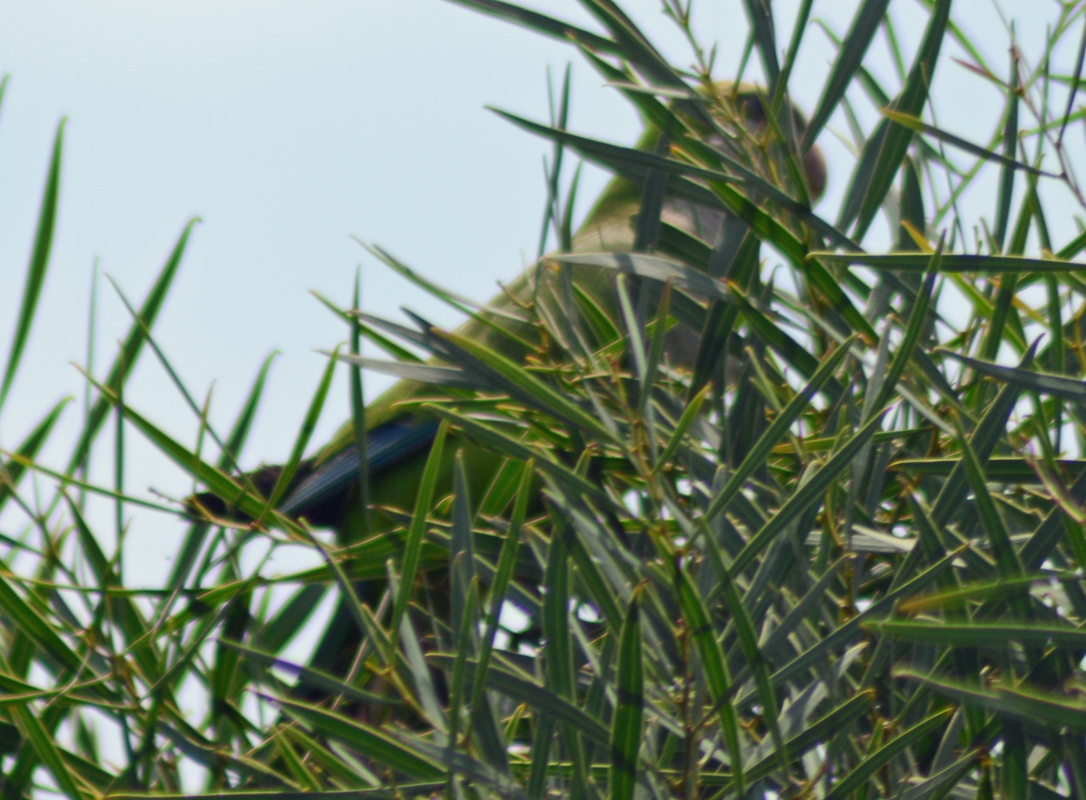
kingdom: Animalia
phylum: Chordata
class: Aves
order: Psittaciformes
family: Psittacidae
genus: Myiopsitta
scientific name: Myiopsitta monachus
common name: Monk parakeet
